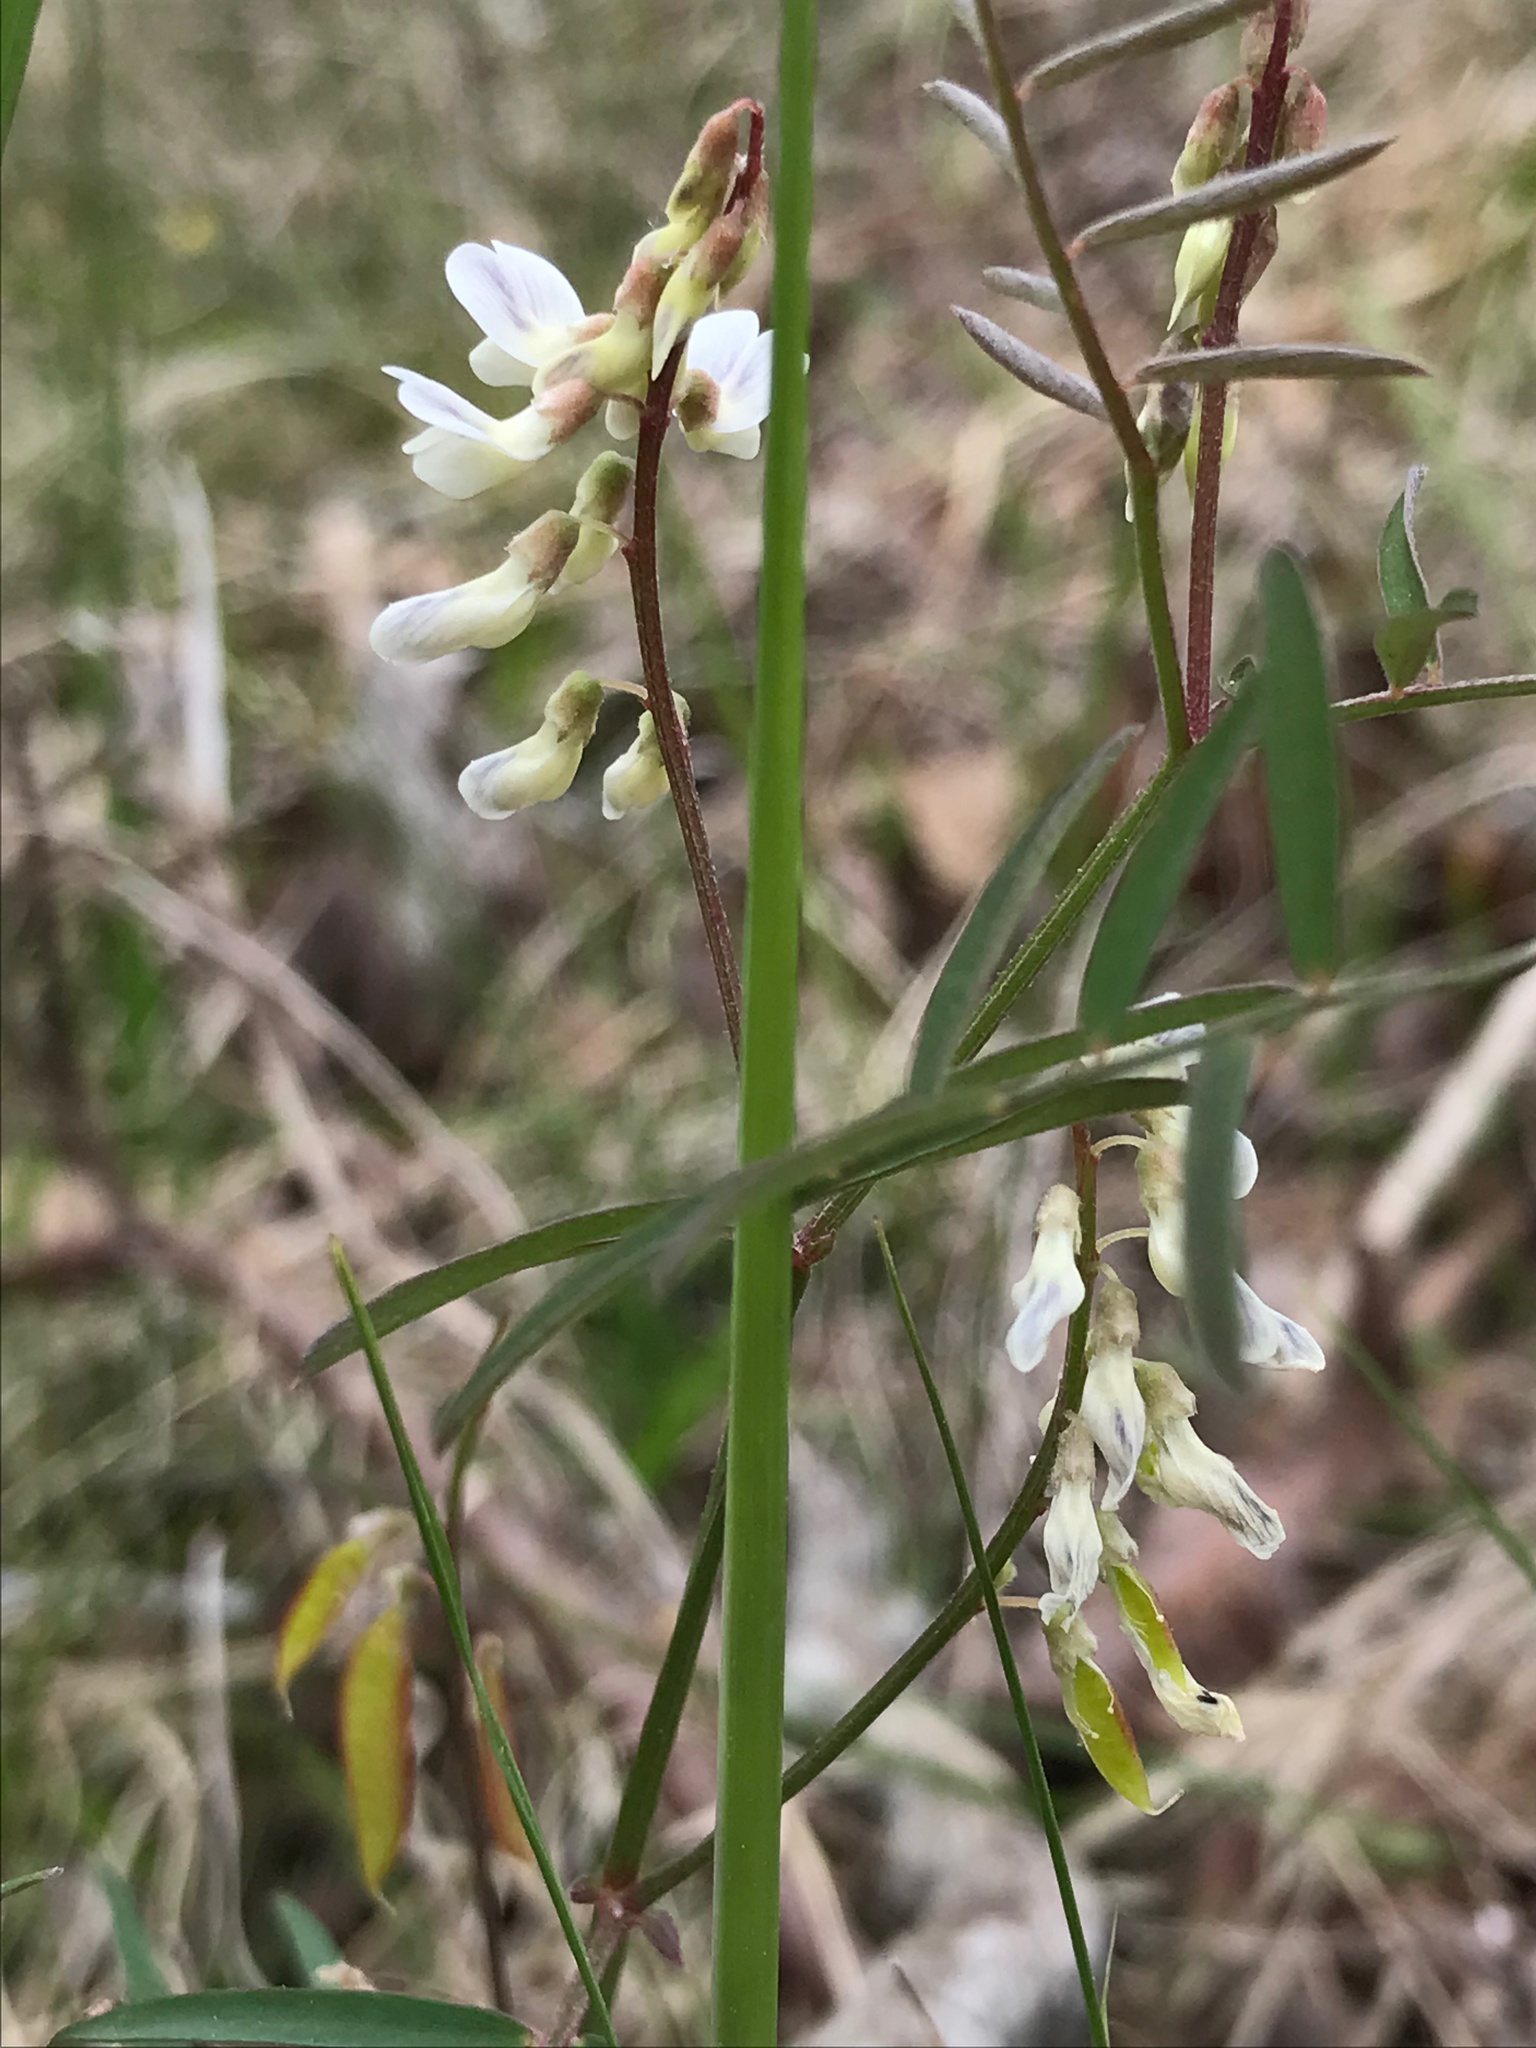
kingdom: Plantae
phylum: Tracheophyta
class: Magnoliopsida
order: Fabales
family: Fabaceae
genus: Vicia
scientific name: Vicia caroliniana
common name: Carolina vetch
